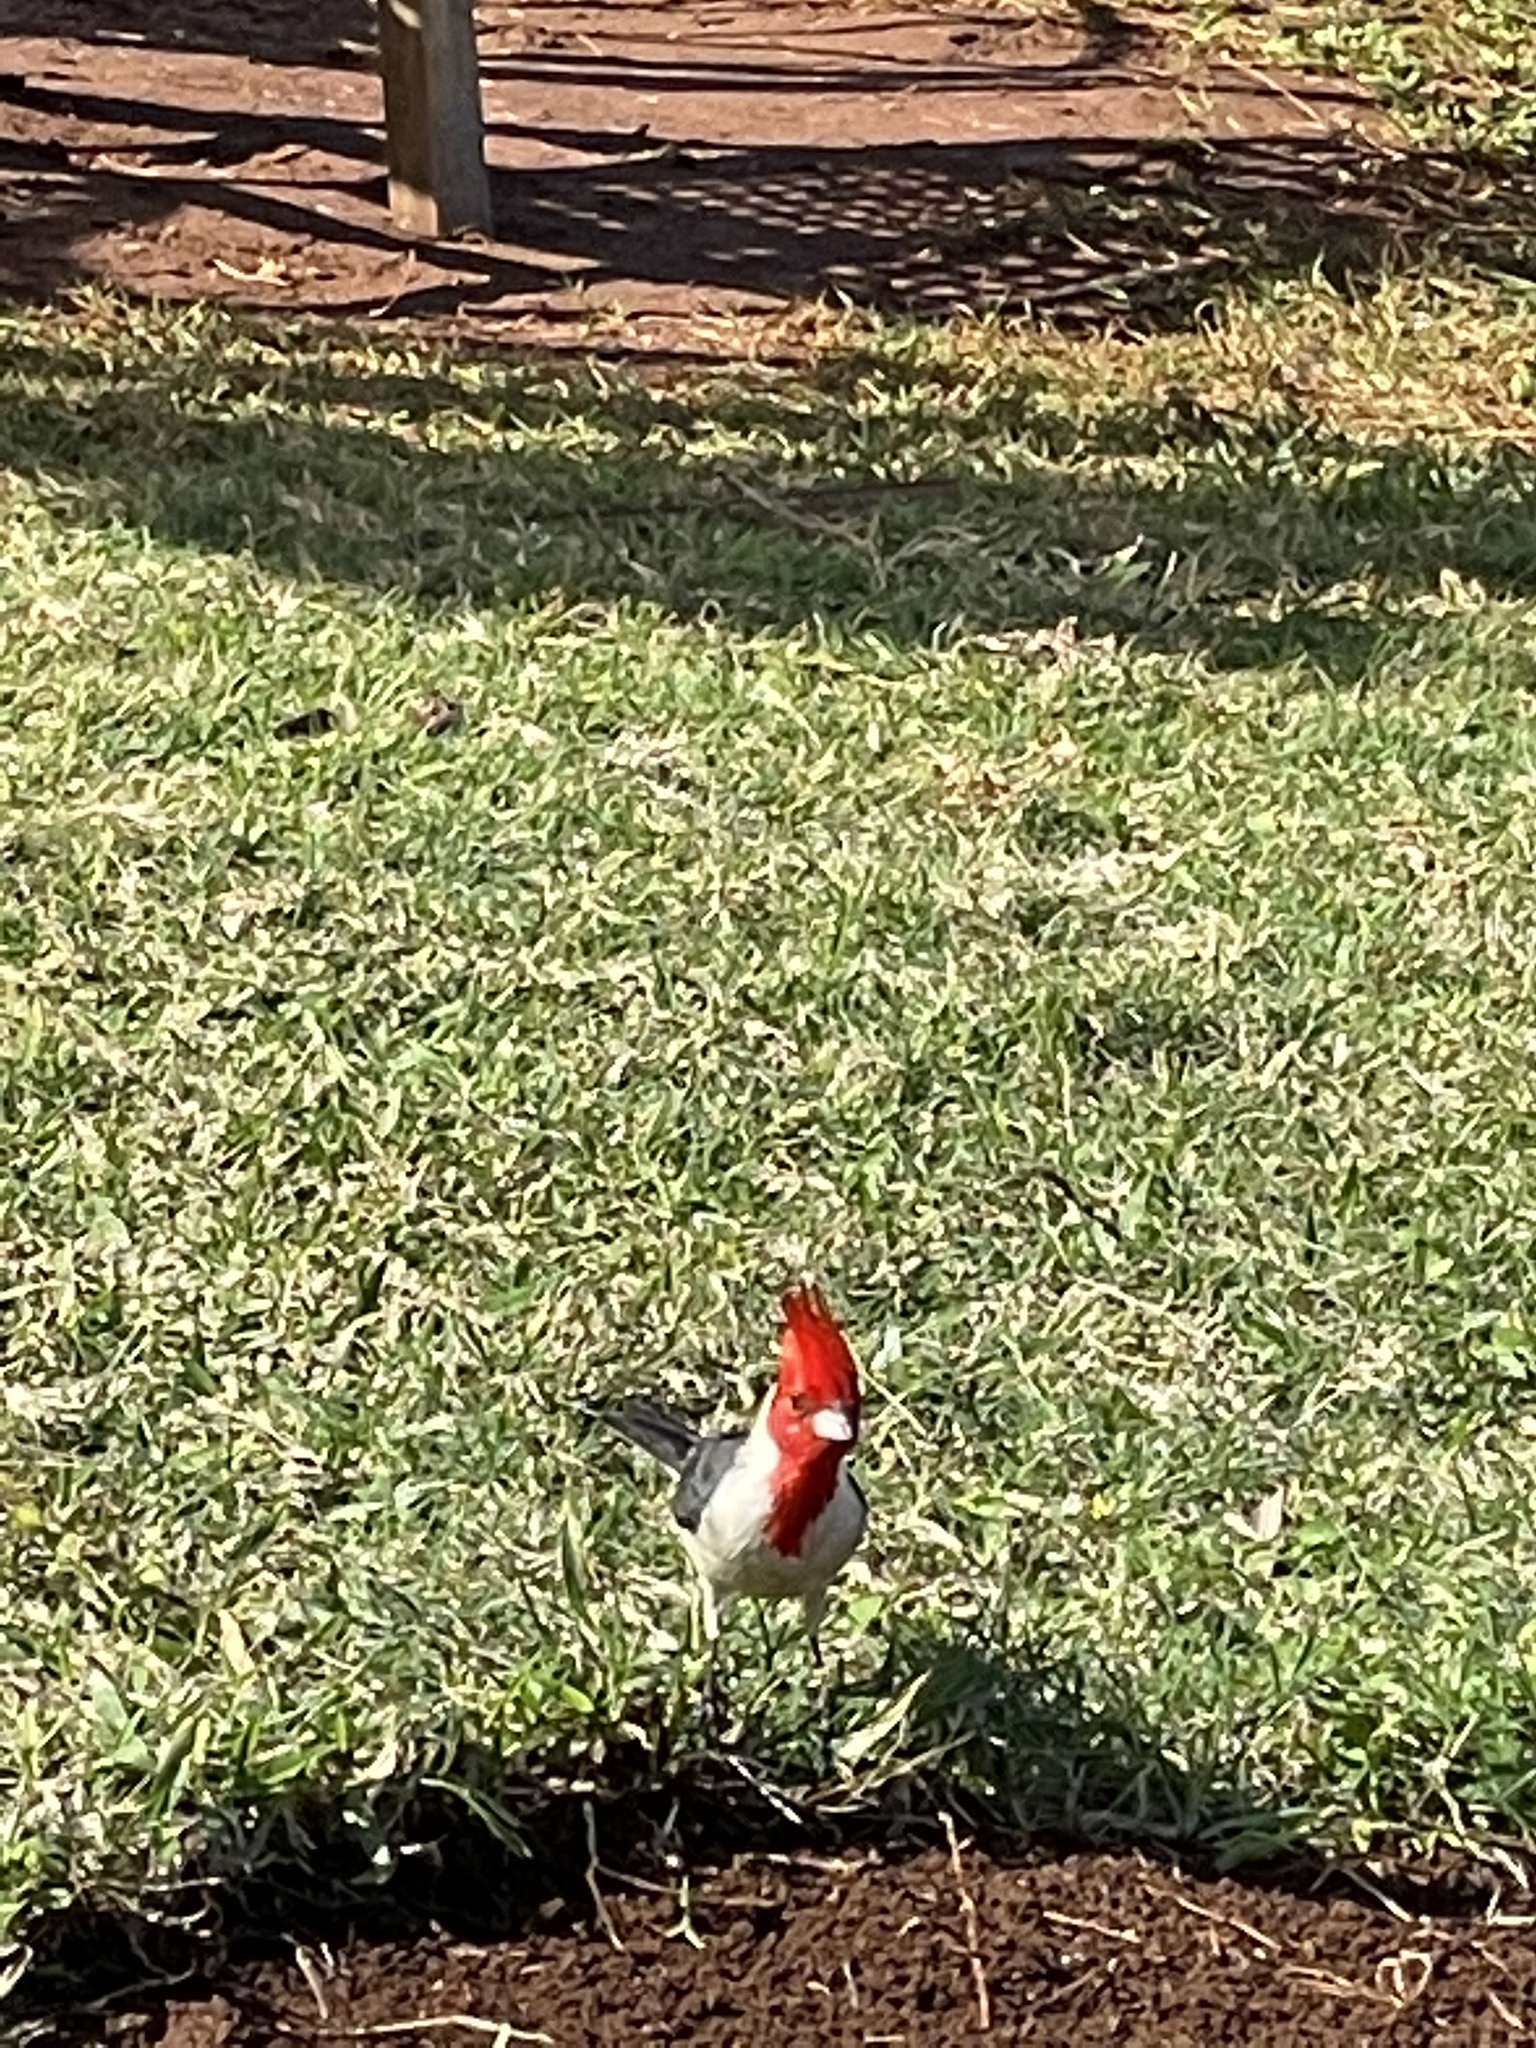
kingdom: Animalia
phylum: Chordata
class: Aves
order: Passeriformes
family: Thraupidae
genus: Paroaria
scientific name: Paroaria coronata
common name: Red-crested cardinal
